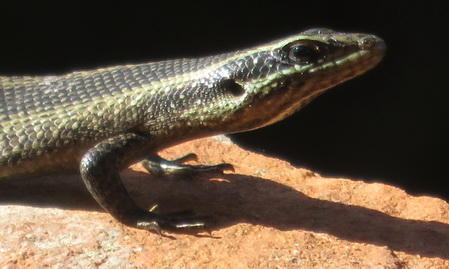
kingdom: Animalia
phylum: Chordata
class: Squamata
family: Scincidae
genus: Trachylepis
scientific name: Trachylepis punctatissima
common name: Montane speckled skink
